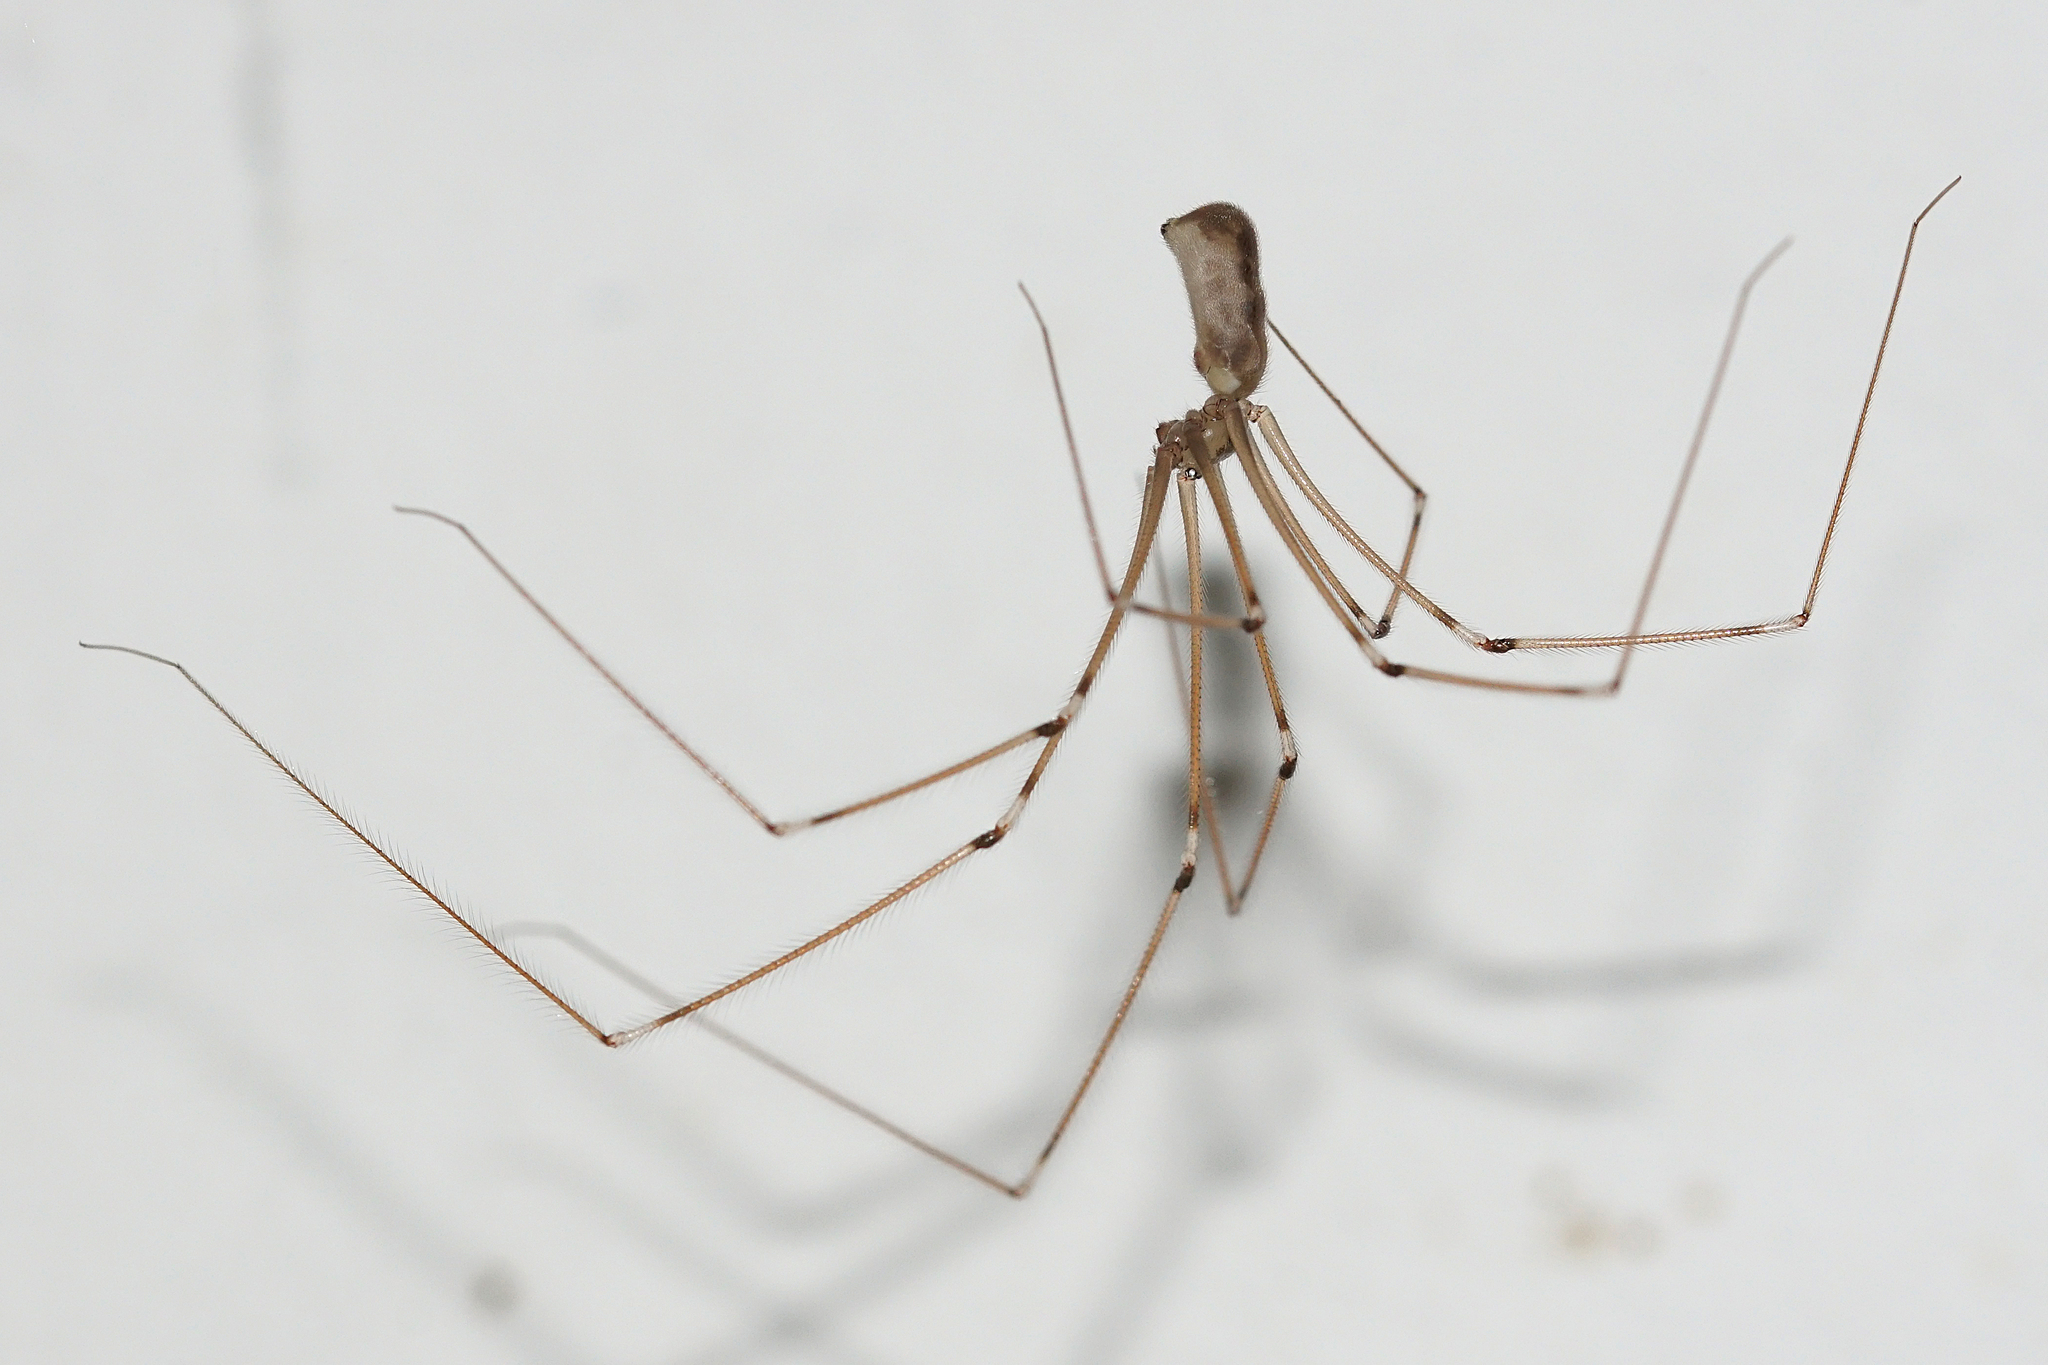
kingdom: Animalia
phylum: Arthropoda
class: Arachnida
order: Araneae
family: Pholcidae
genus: Pholcus
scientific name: Pholcus phalangioides
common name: Longbodied cellar spider
